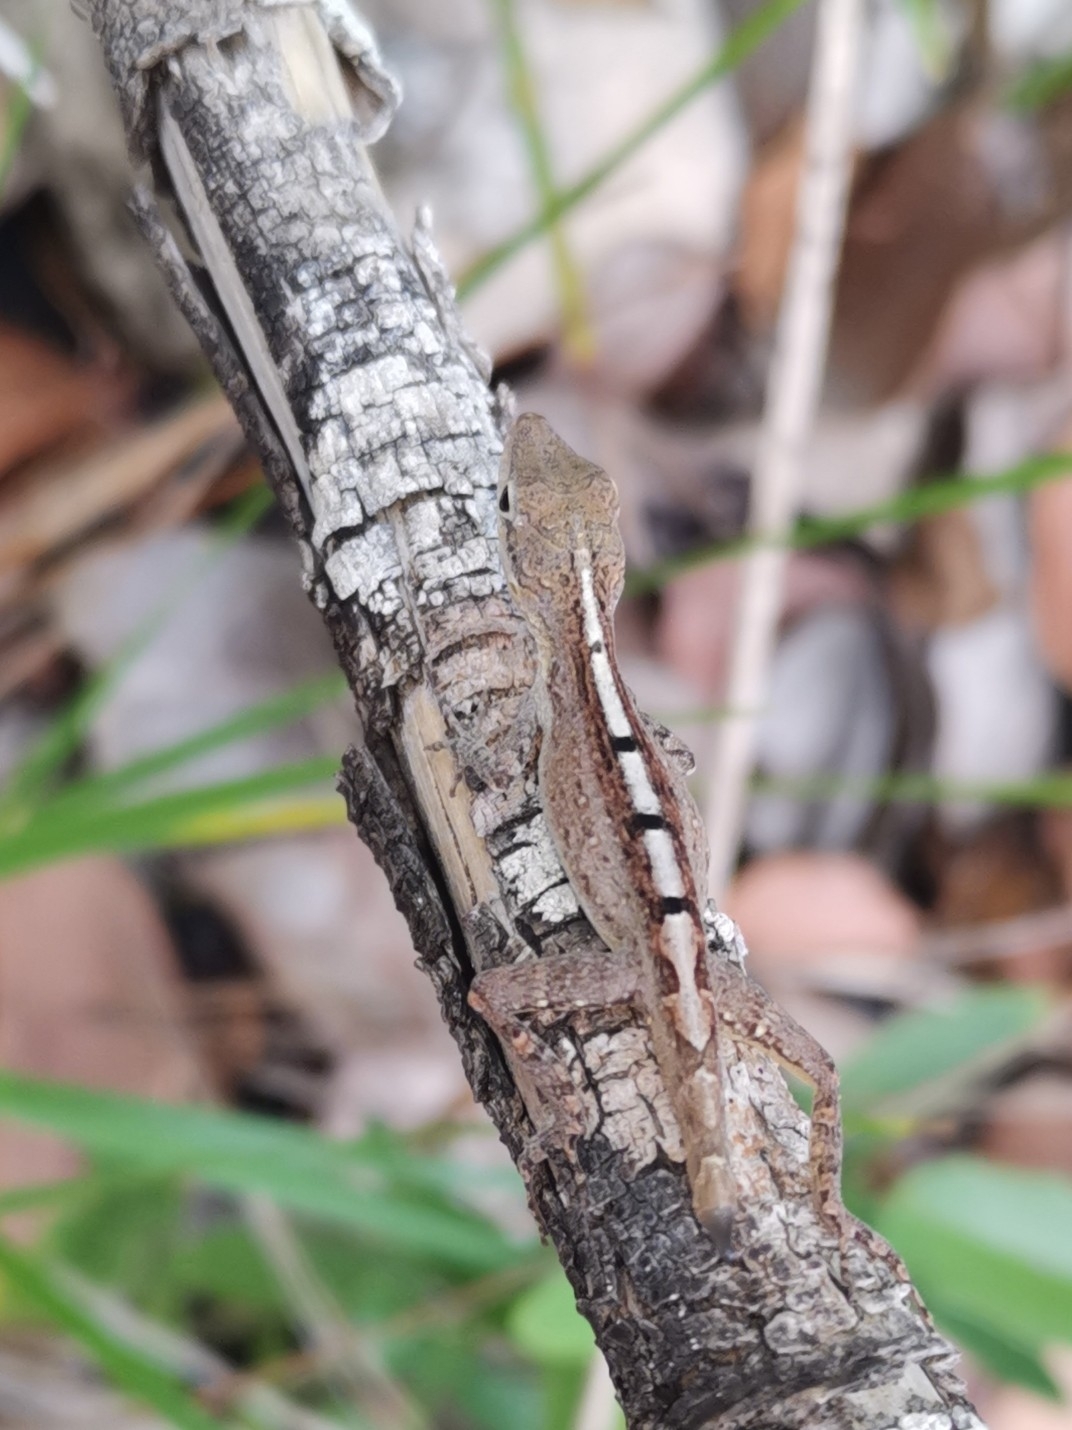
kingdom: Animalia
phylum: Chordata
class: Squamata
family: Dactyloidae
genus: Anolis
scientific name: Anolis scriptus
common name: Silver key anole
